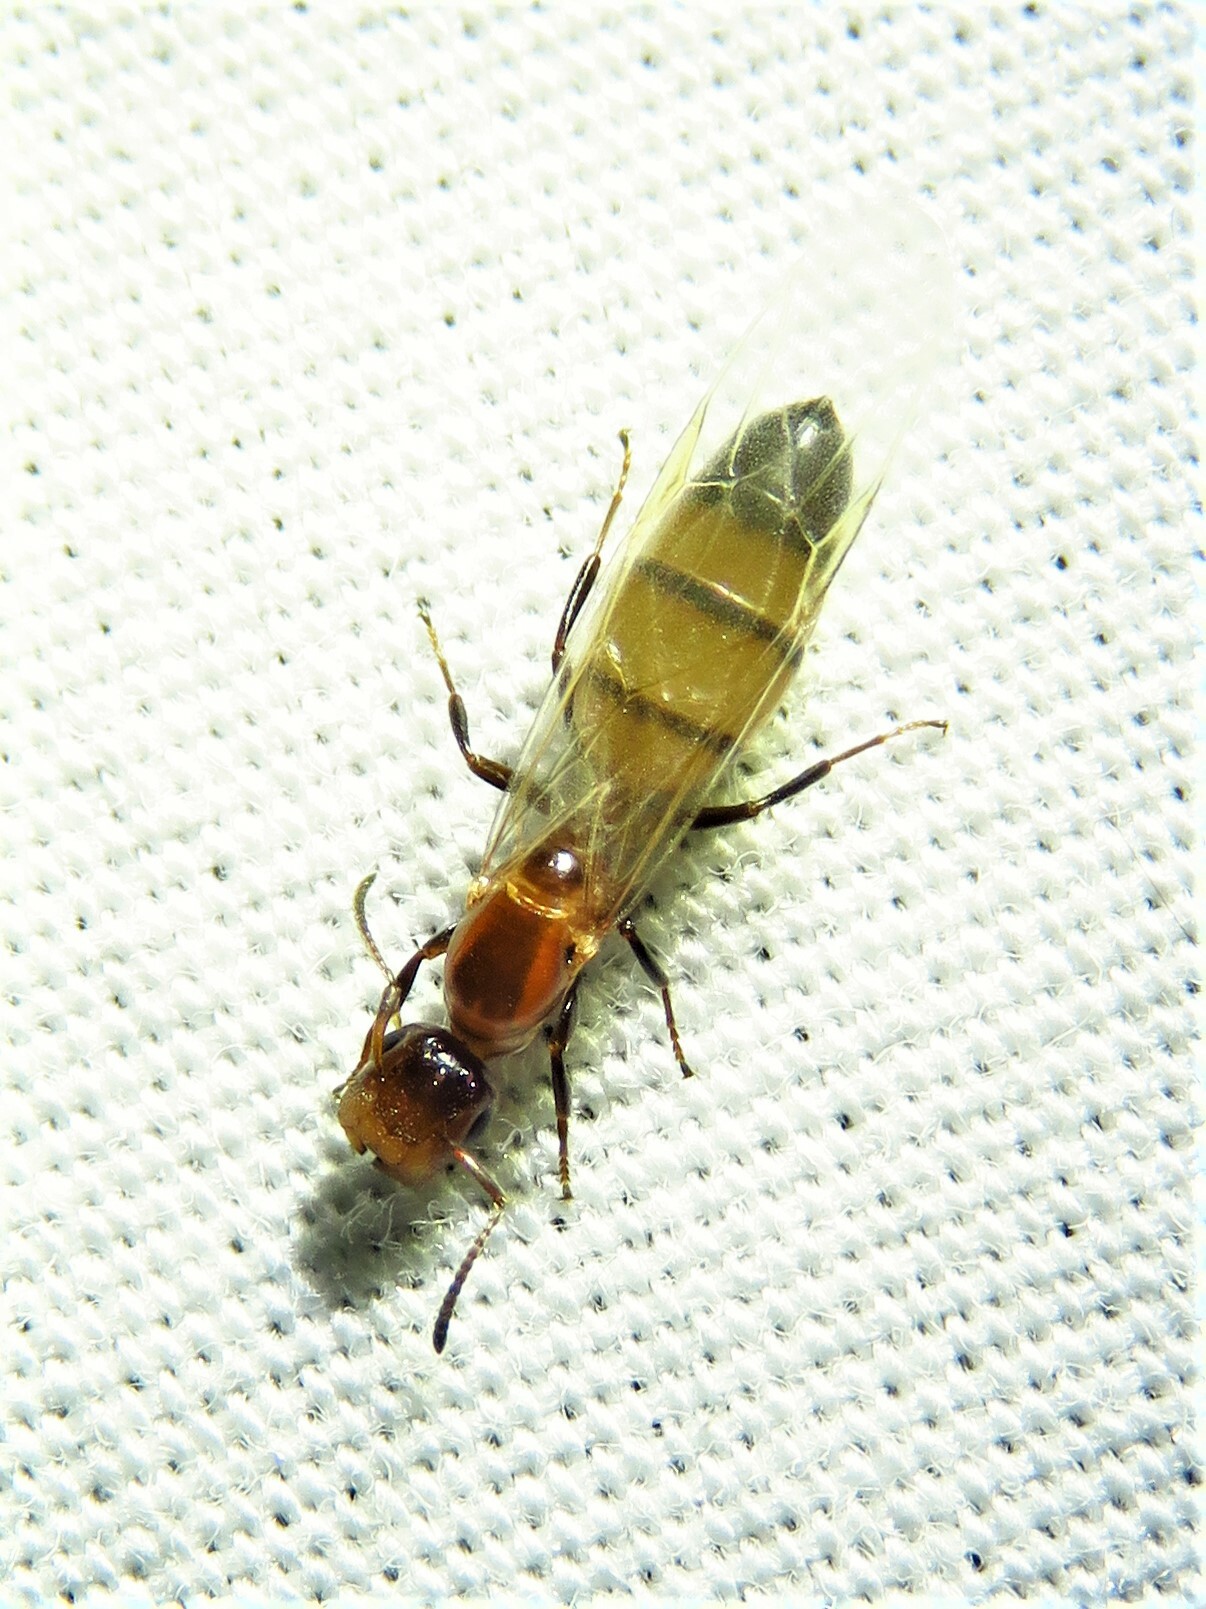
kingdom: Animalia
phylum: Arthropoda
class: Insecta
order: Hymenoptera
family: Formicidae
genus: Colobopsis
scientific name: Colobopsis impressa
